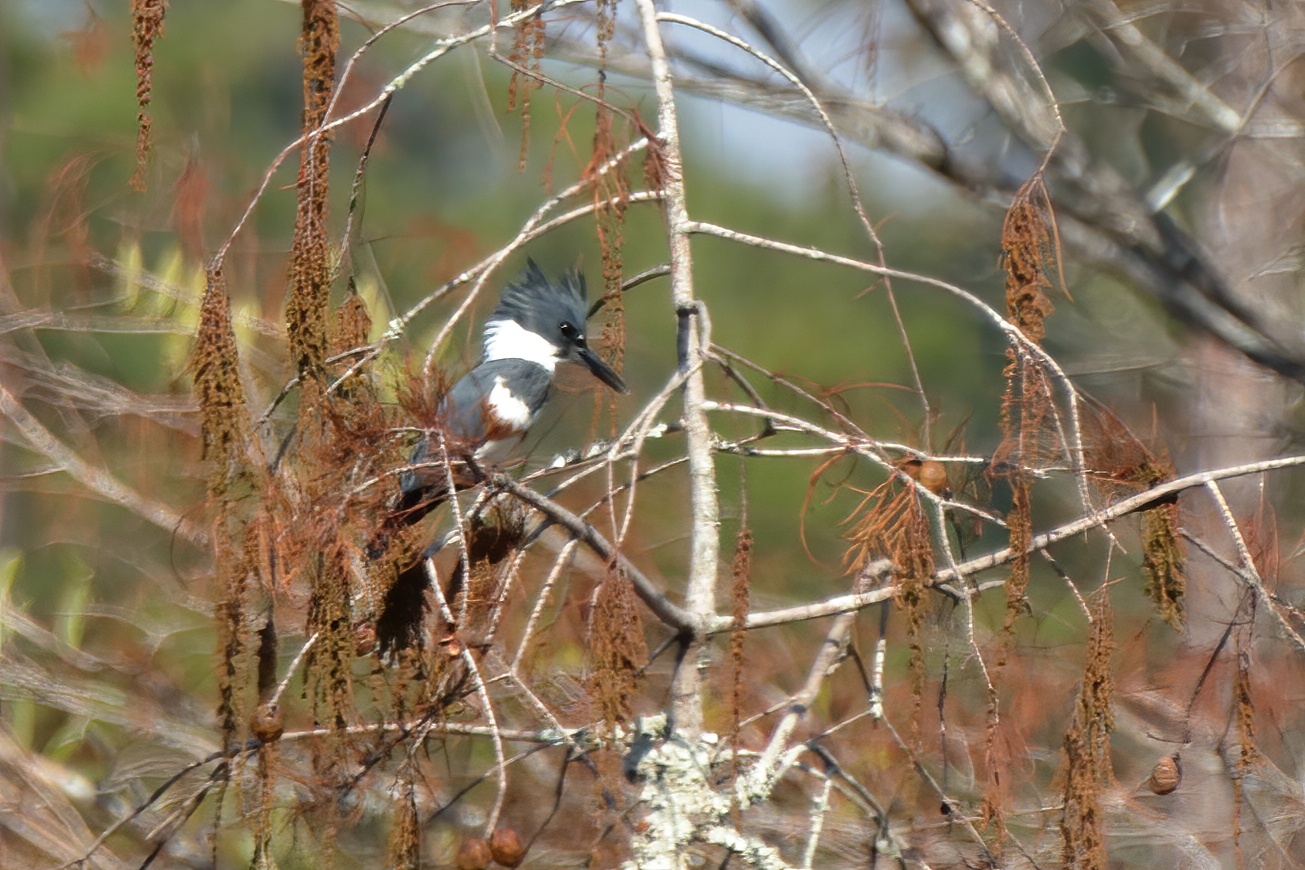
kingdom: Animalia
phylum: Chordata
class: Aves
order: Coraciiformes
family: Alcedinidae
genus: Megaceryle
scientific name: Megaceryle alcyon
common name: Belted kingfisher
